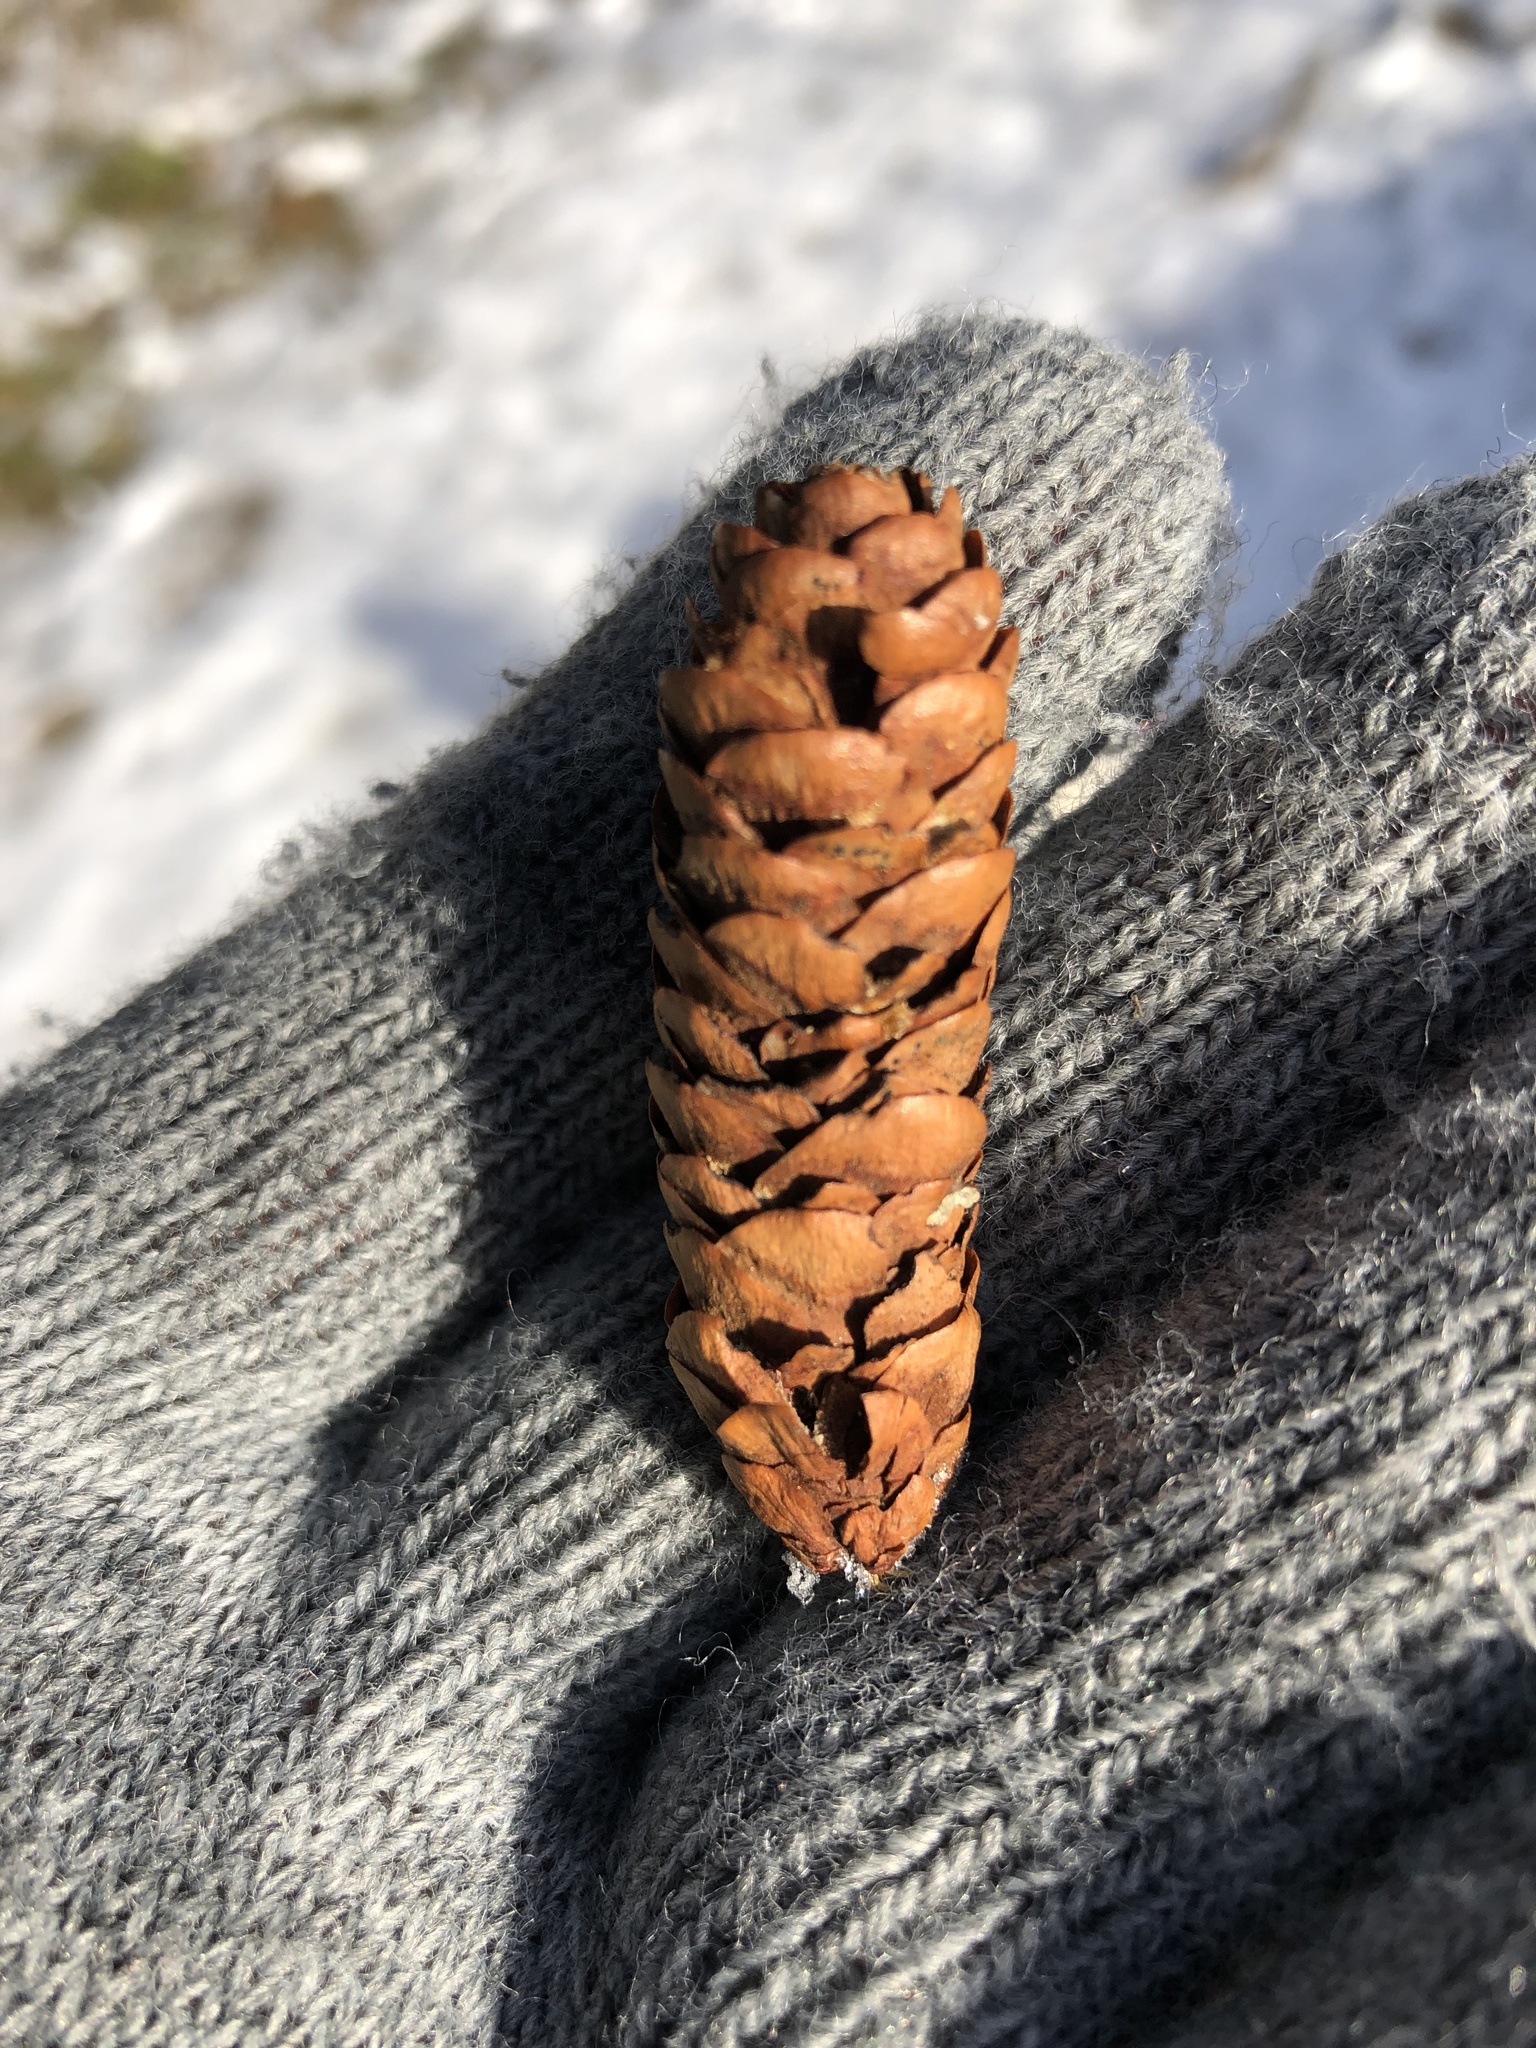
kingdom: Plantae
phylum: Tracheophyta
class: Pinopsida
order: Pinales
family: Pinaceae
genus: Picea
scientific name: Picea glauca
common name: White spruce
